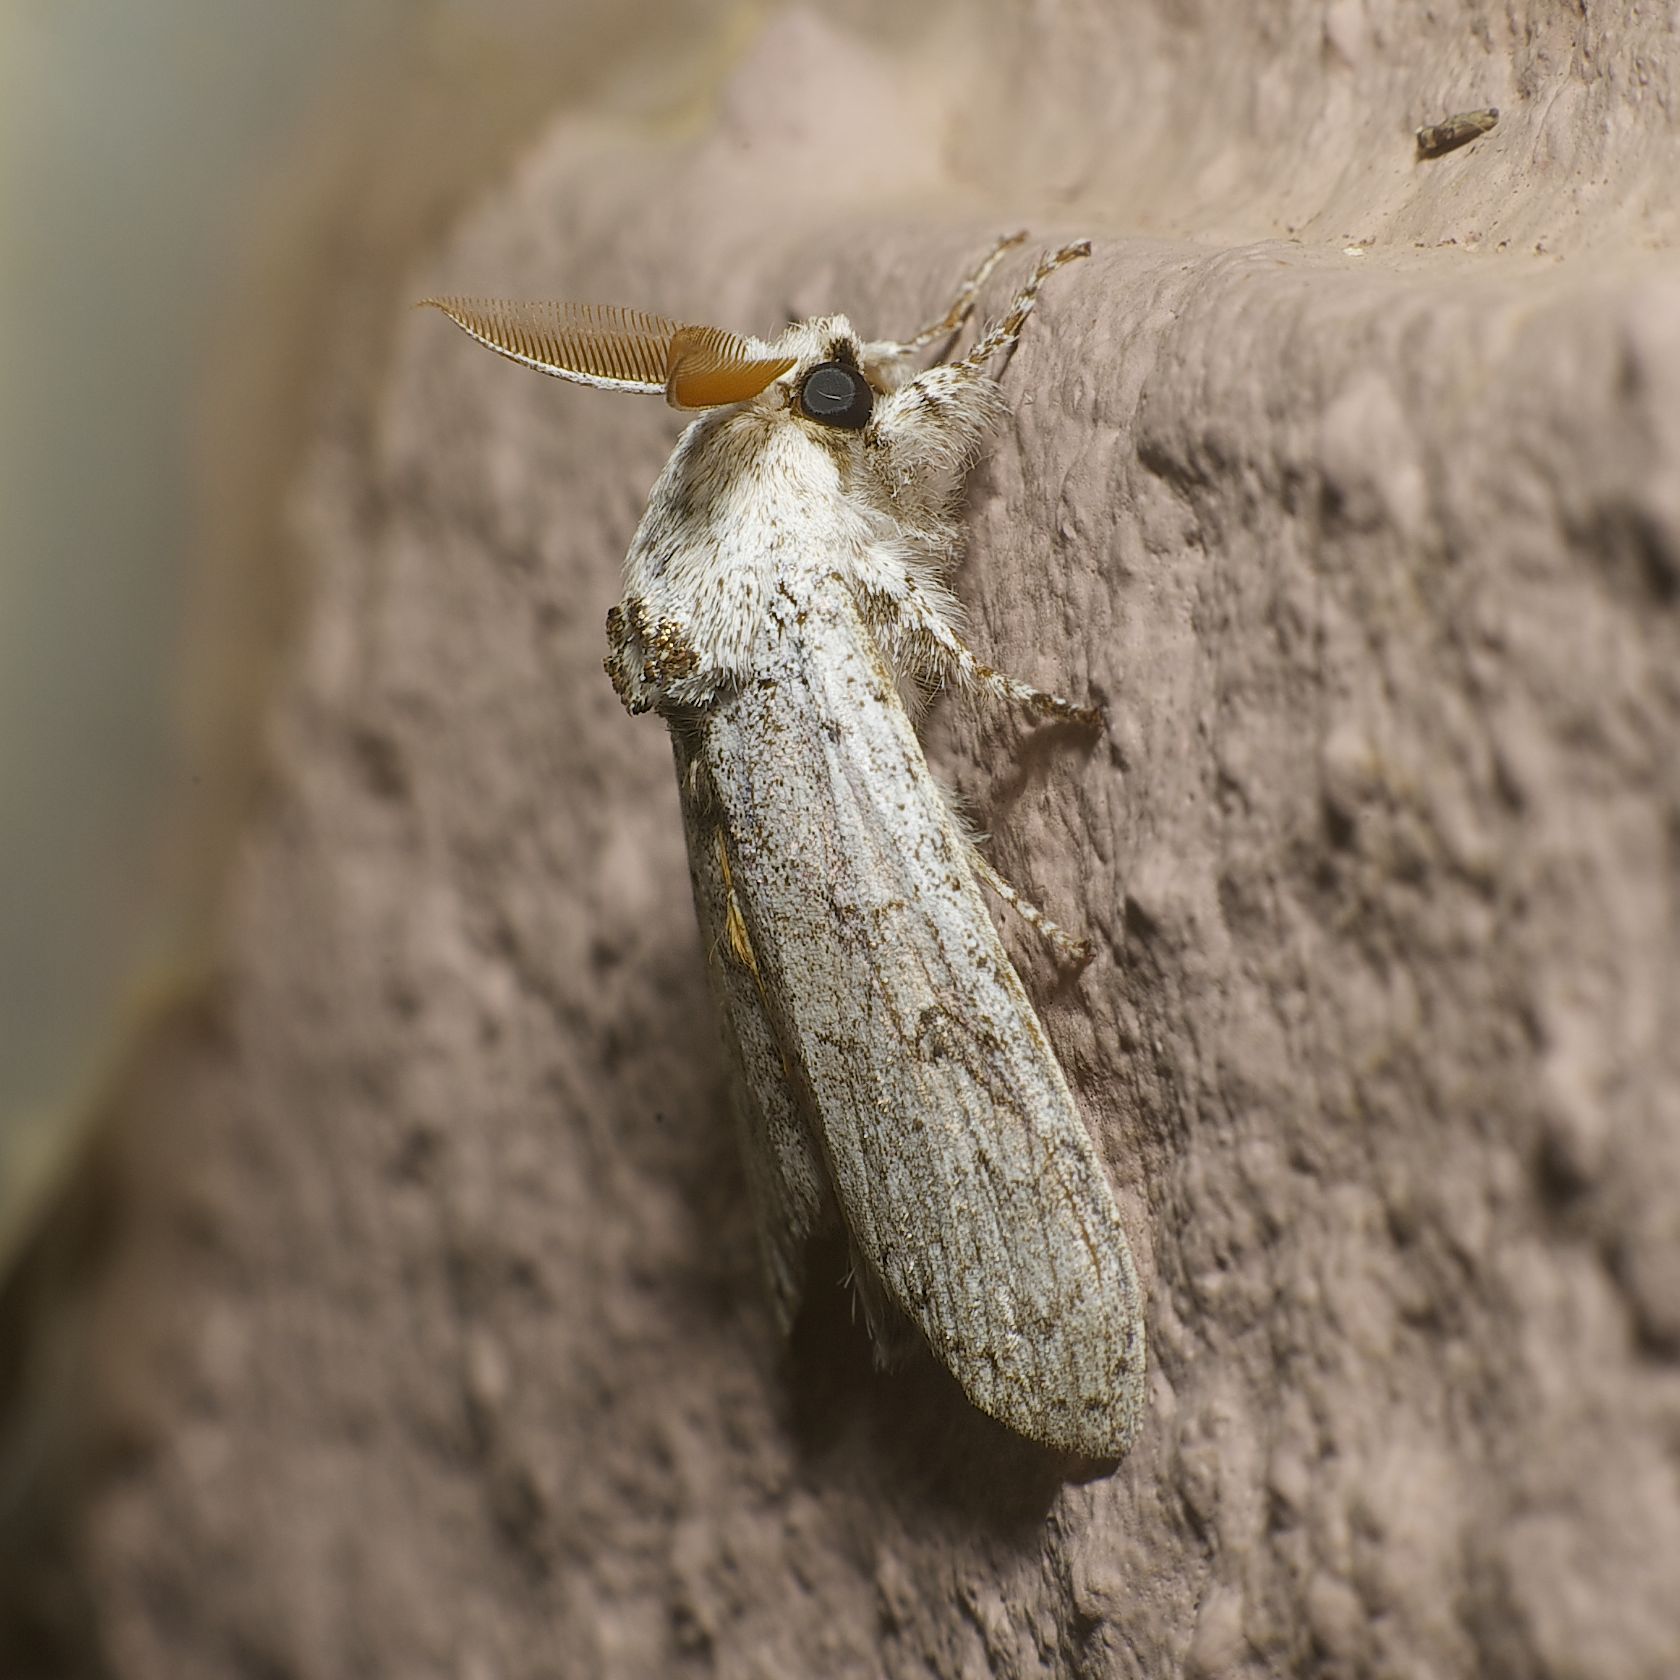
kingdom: Animalia
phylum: Arthropoda
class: Insecta
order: Lepidoptera
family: Erebidae
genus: Calliteara
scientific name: Calliteara grotei
